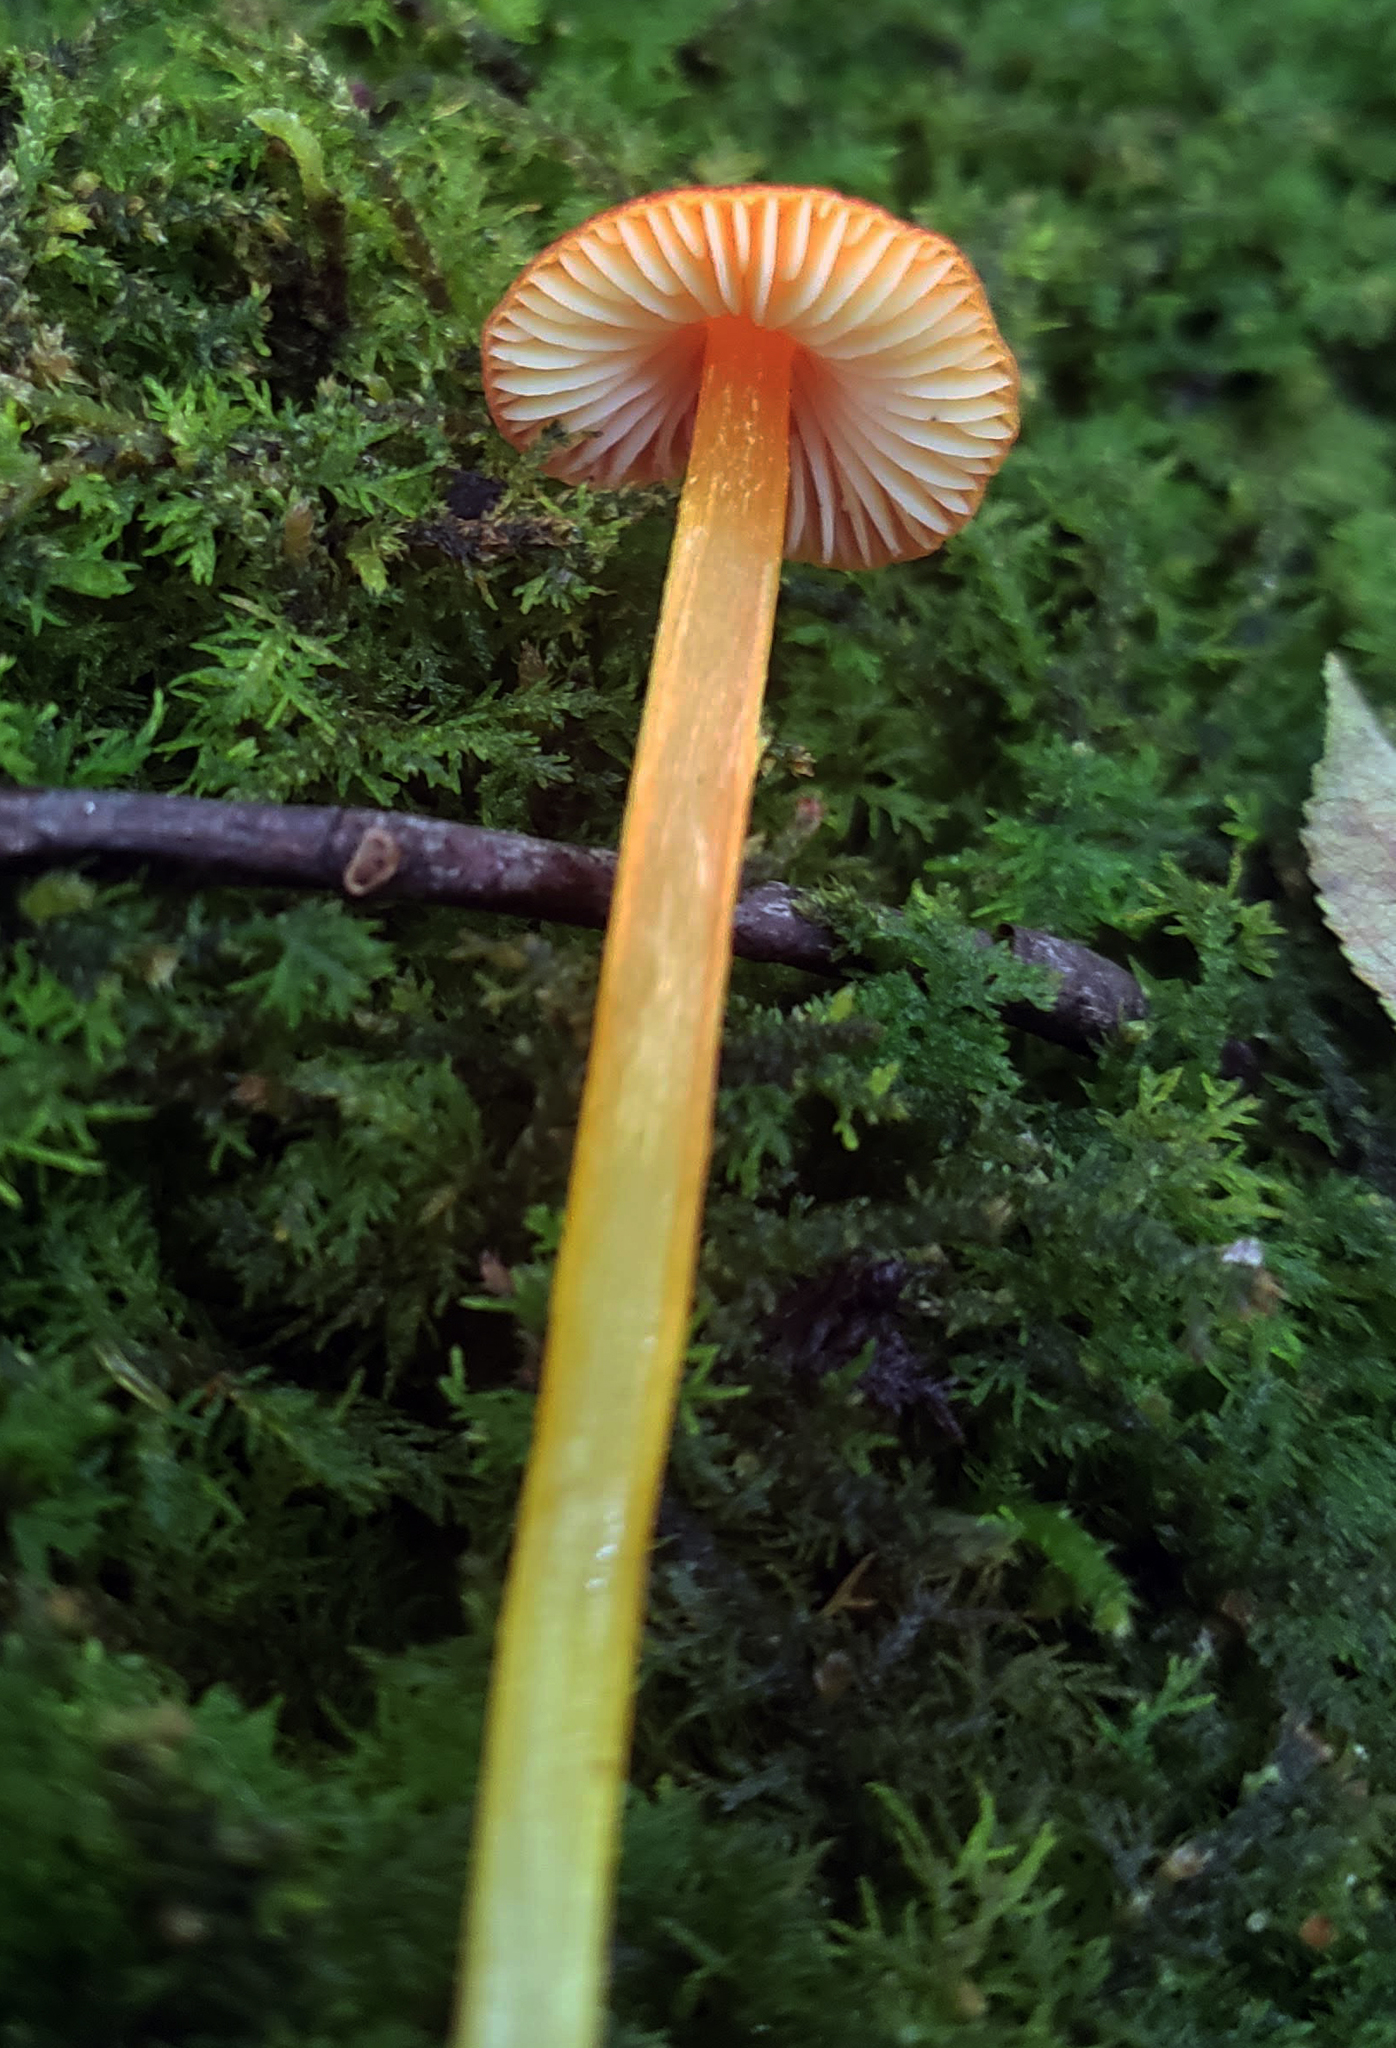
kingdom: Fungi
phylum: Basidiomycota
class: Agaricomycetes
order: Agaricales
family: Hygrophoraceae
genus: Hygrocybe
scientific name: Hygrocybe conica
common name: Blackening wax-cap
